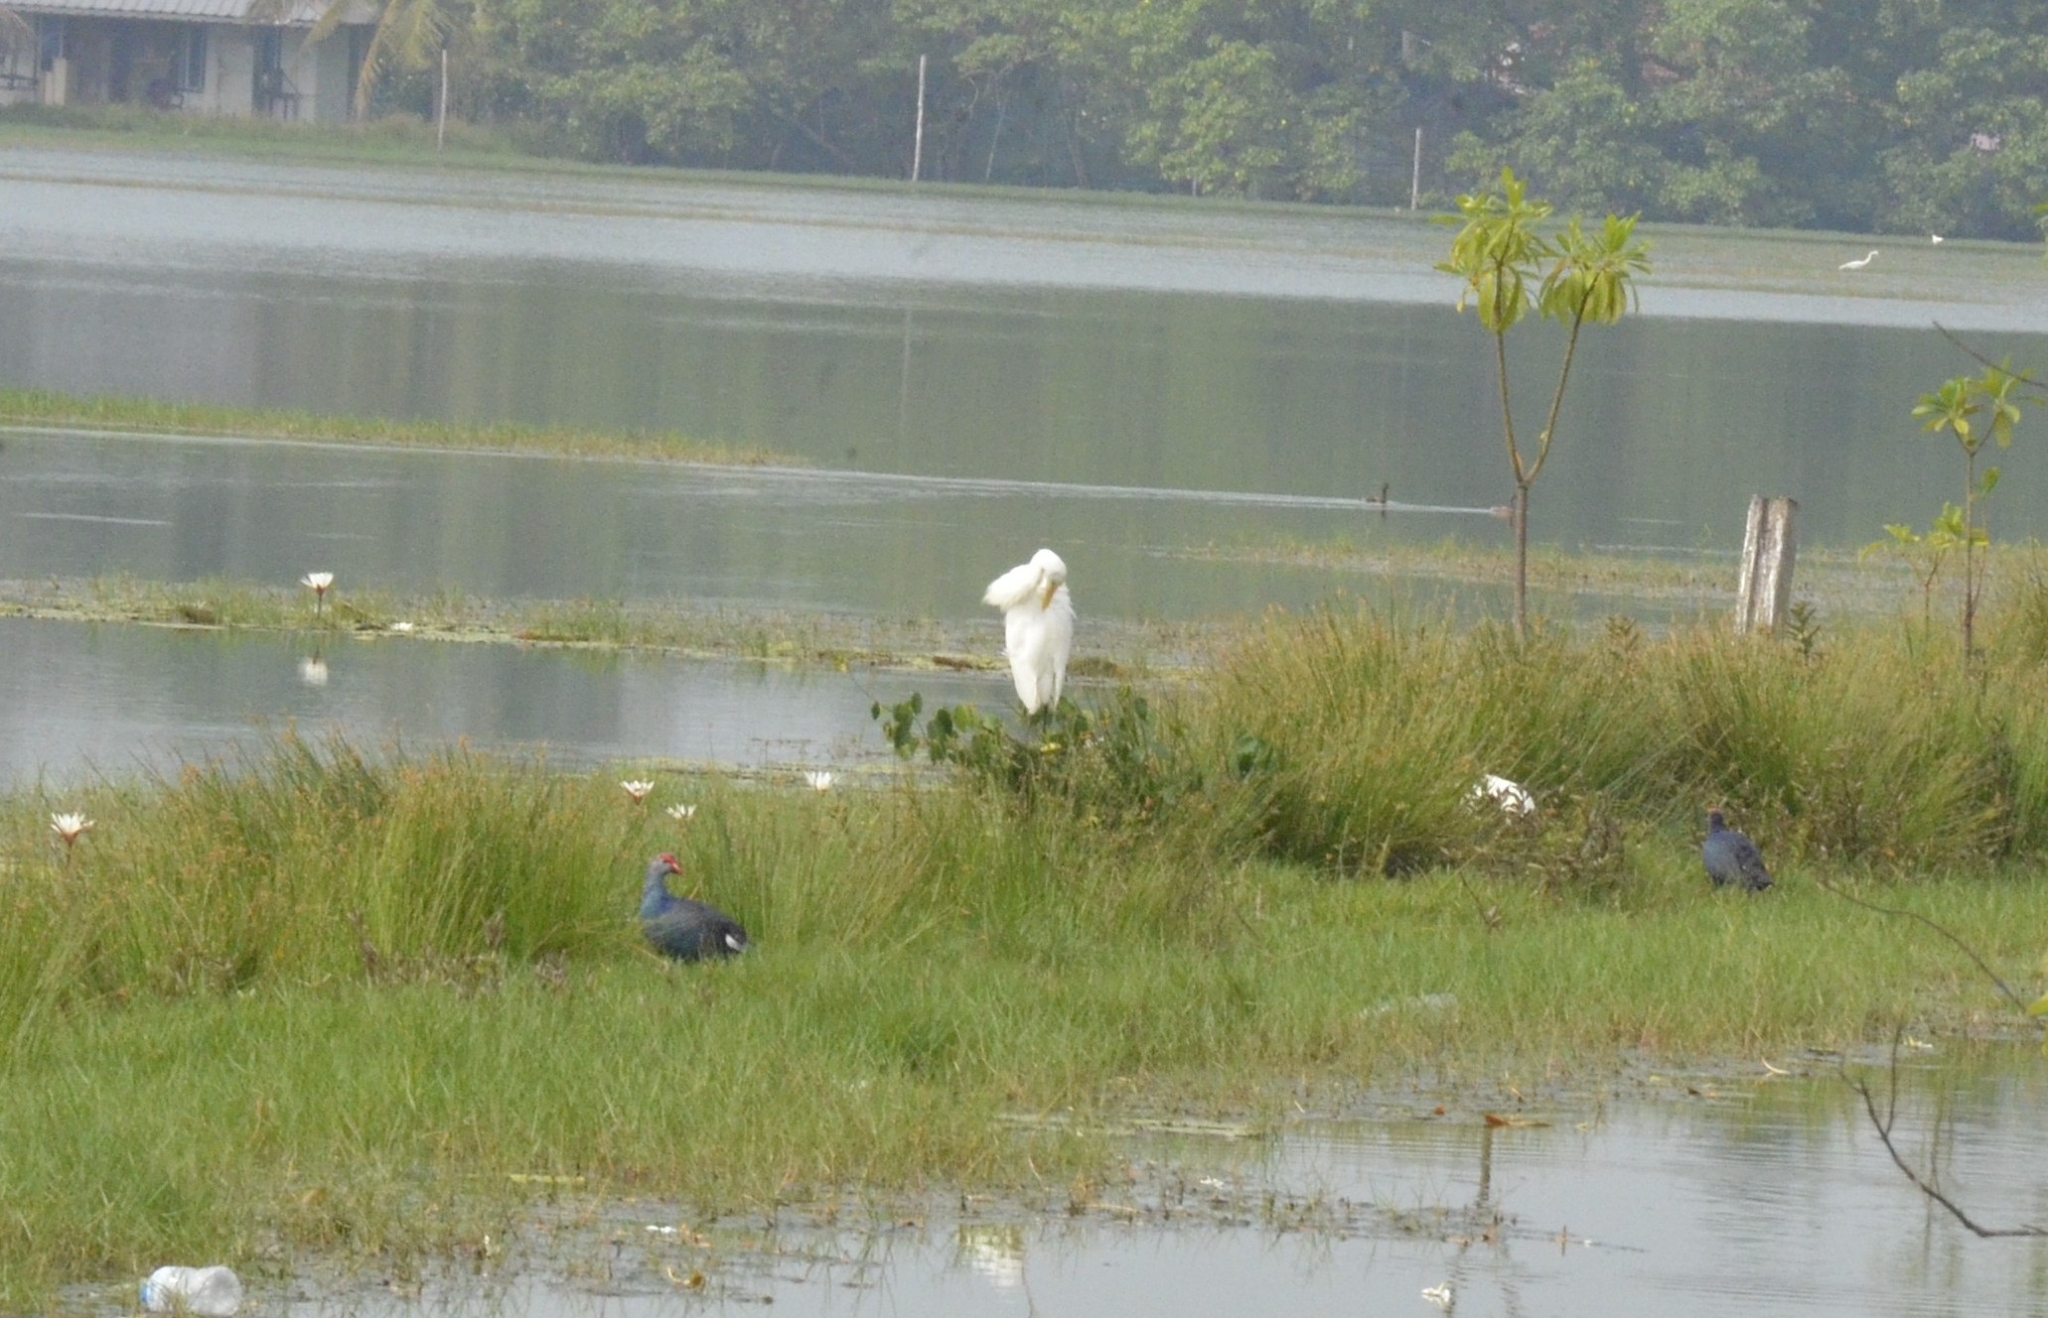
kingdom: Animalia
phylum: Chordata
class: Aves
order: Gruiformes
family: Rallidae
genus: Porphyrio
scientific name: Porphyrio porphyrio
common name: Purple swamphen
